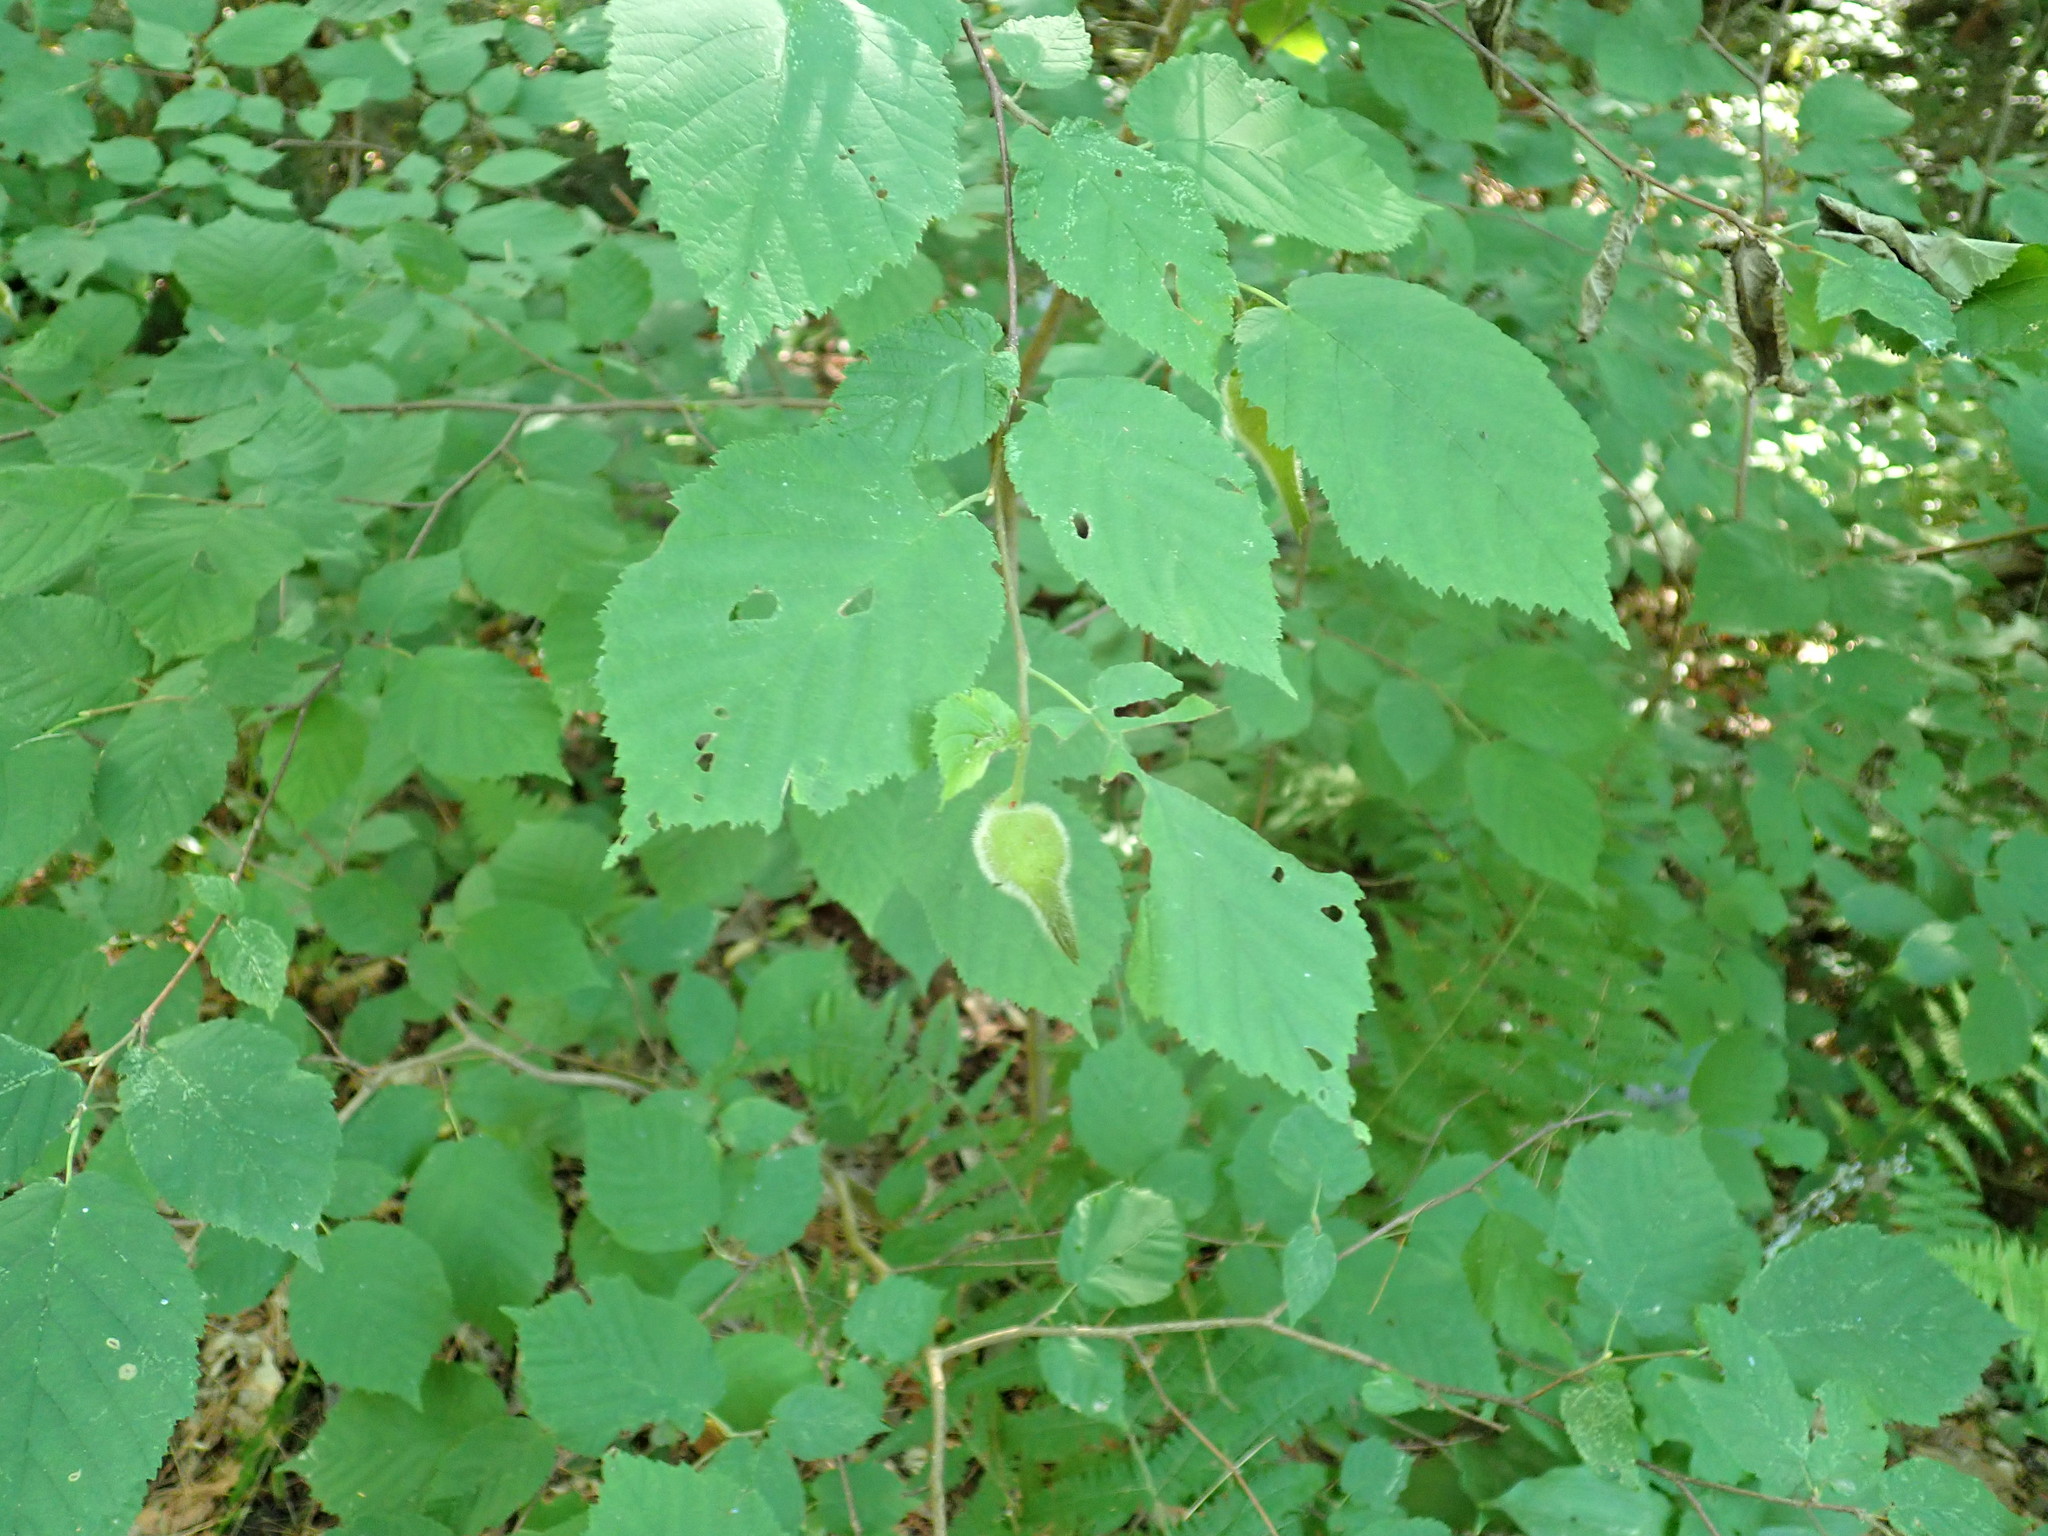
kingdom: Plantae
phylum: Tracheophyta
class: Magnoliopsida
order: Fagales
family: Betulaceae
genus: Corylus
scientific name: Corylus cornuta
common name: Beaked hazel
